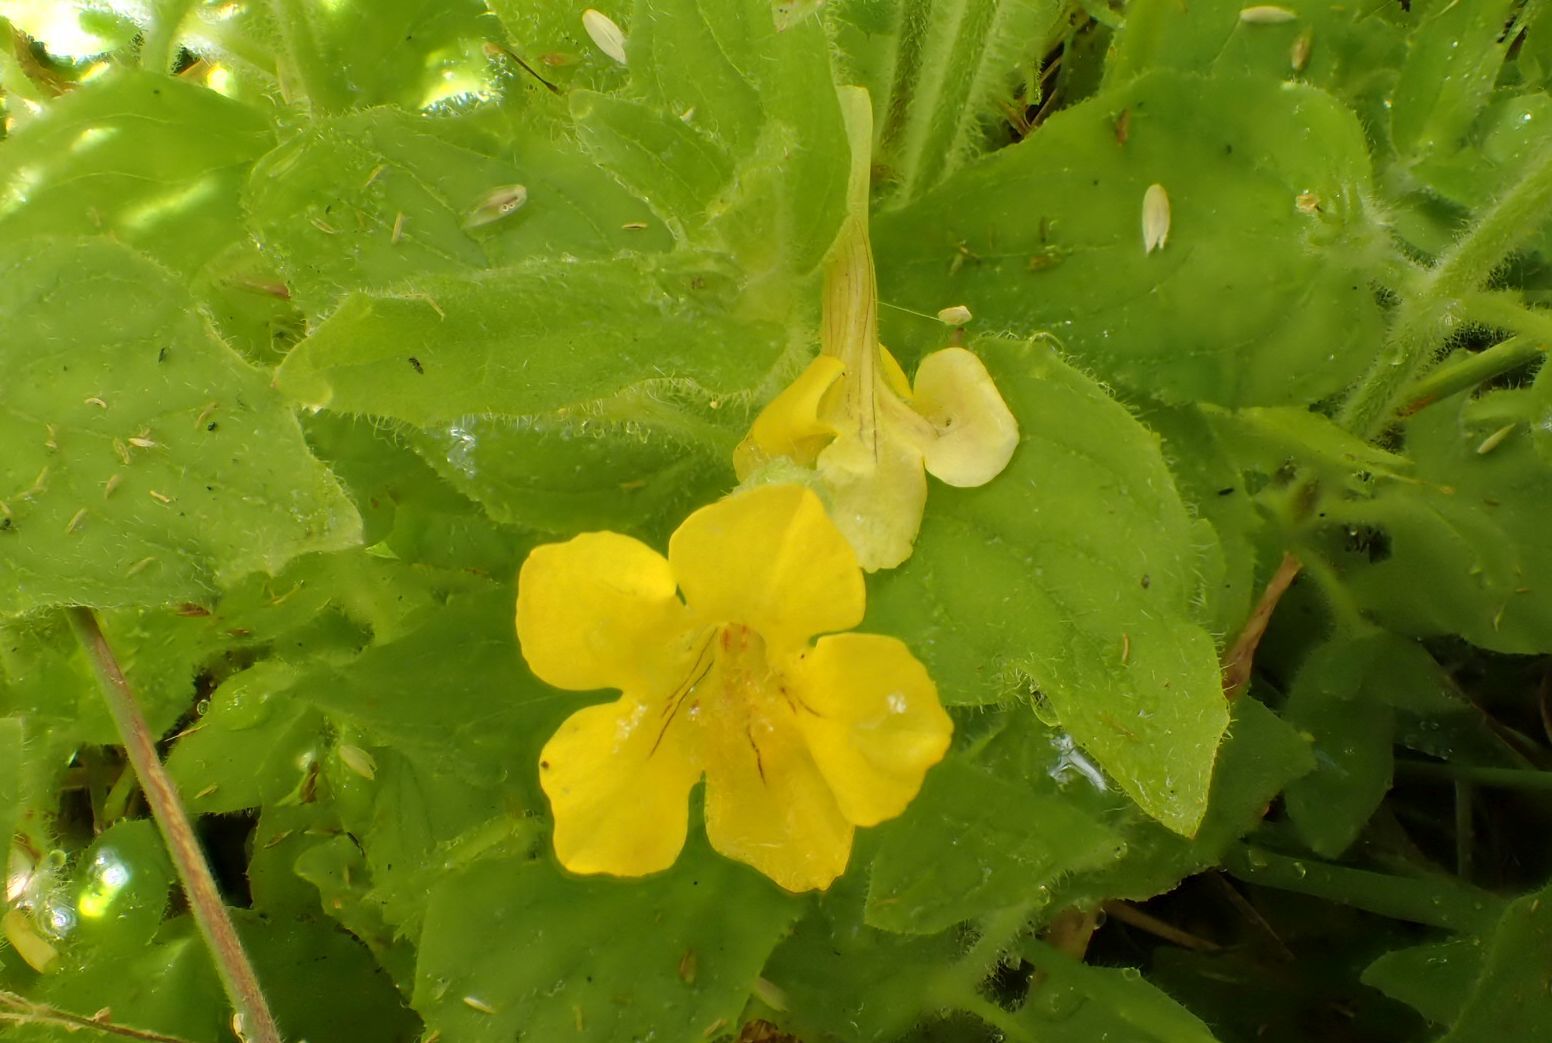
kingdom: Plantae
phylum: Tracheophyta
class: Magnoliopsida
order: Lamiales
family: Phrymaceae
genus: Erythranthe
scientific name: Erythranthe moschata
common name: Muskflower
